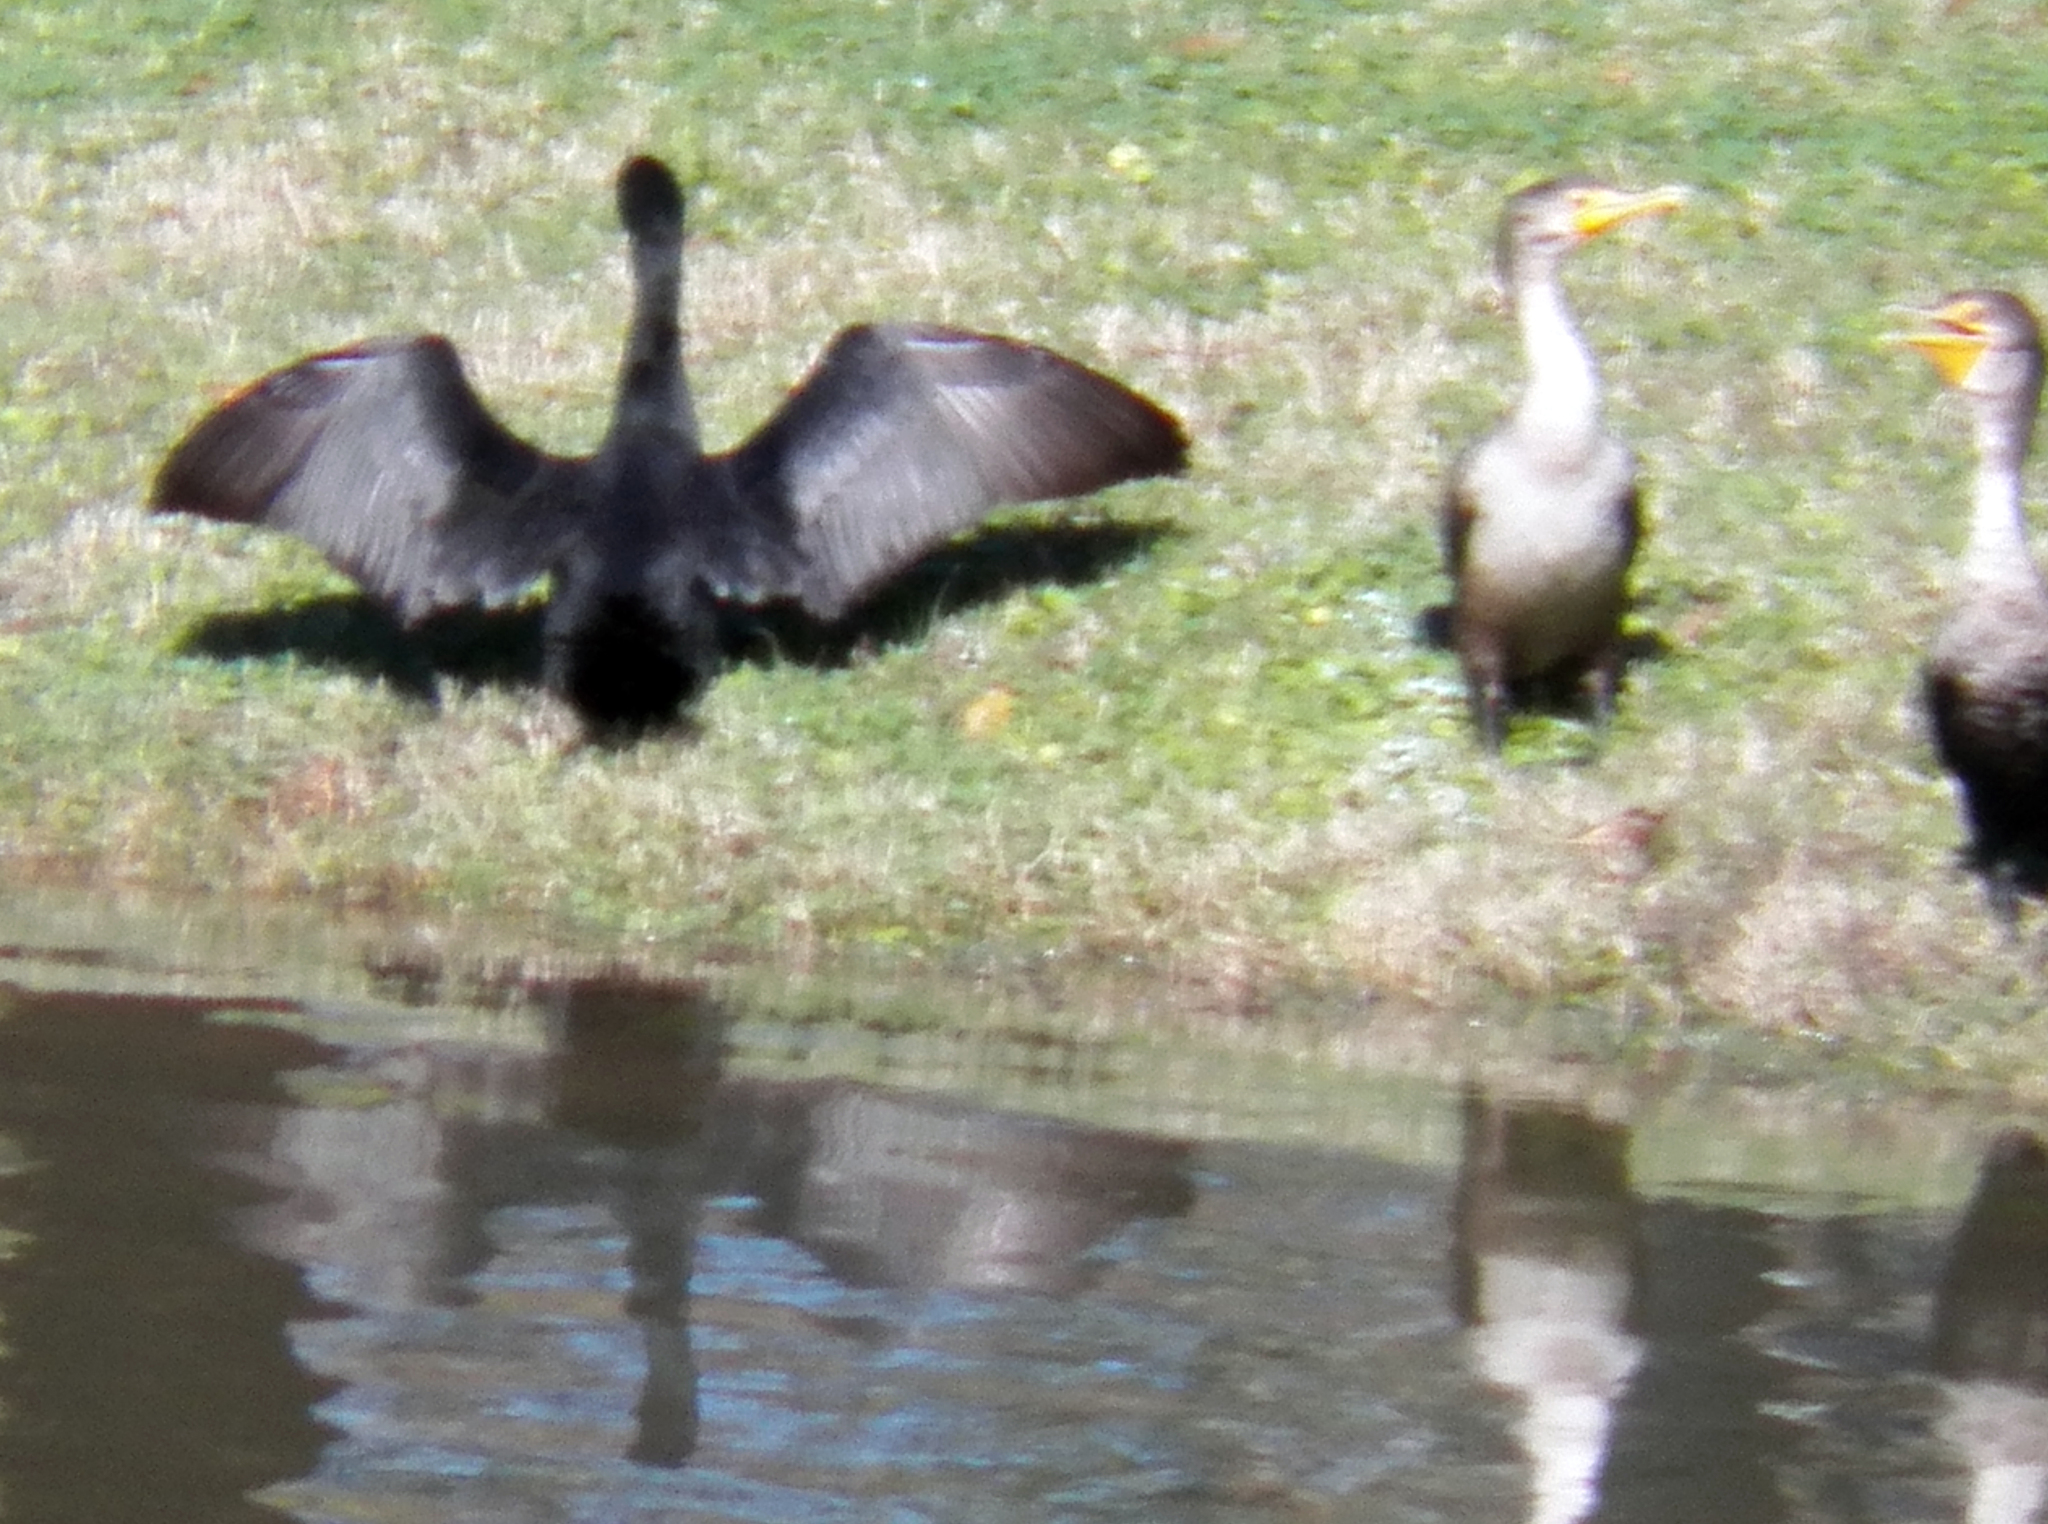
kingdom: Animalia
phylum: Chordata
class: Aves
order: Suliformes
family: Phalacrocoracidae
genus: Phalacrocorax
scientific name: Phalacrocorax brasilianus
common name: Neotropic cormorant
